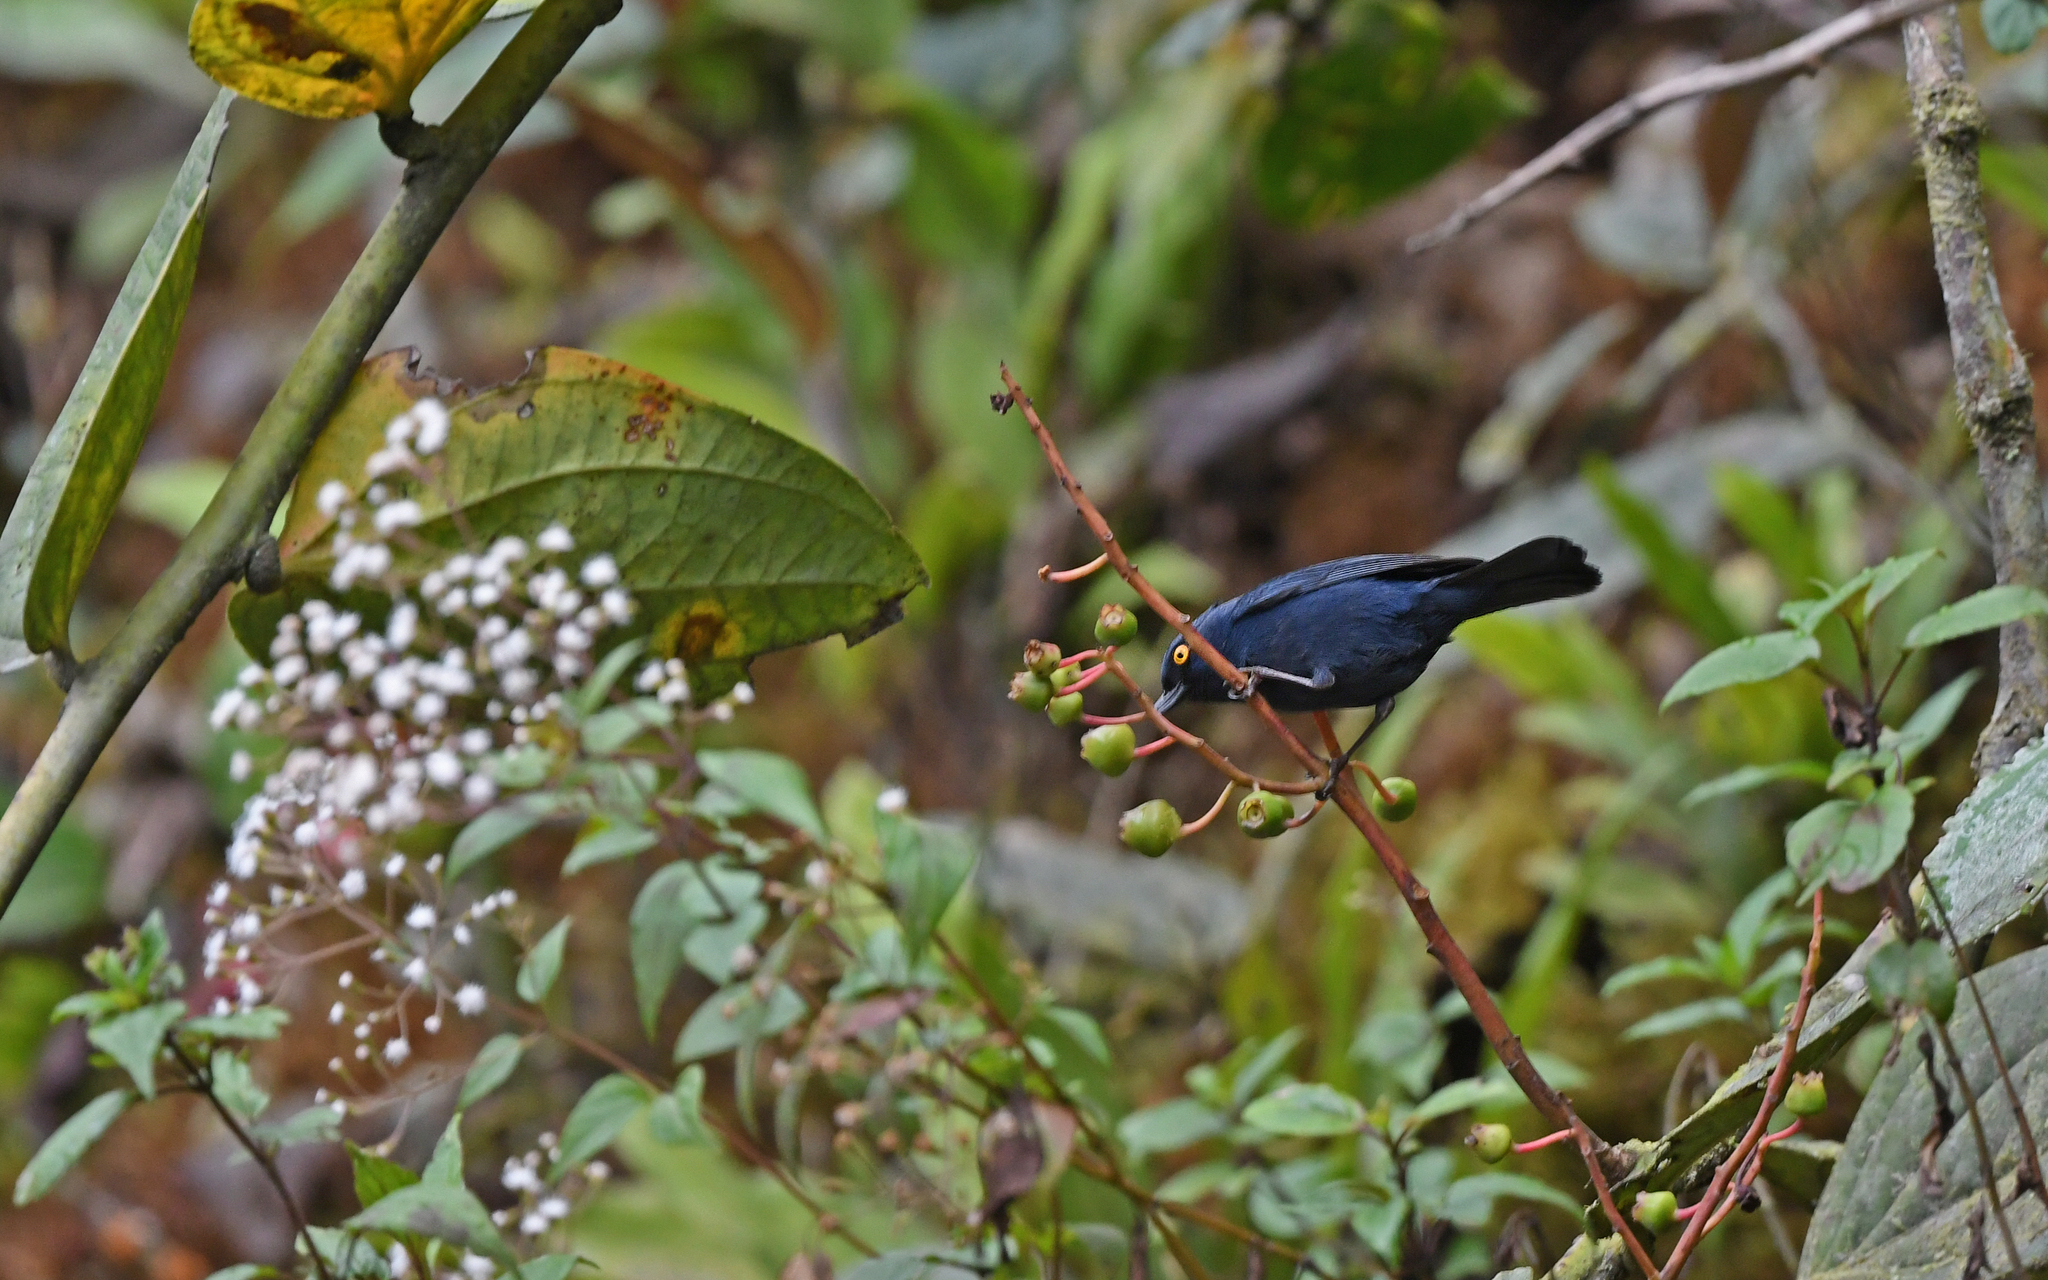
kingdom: Animalia
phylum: Chordata
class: Aves
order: Passeriformes
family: Thraupidae
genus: Diglossa
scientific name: Diglossa glauca
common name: Deep-blue flowerpiercer
